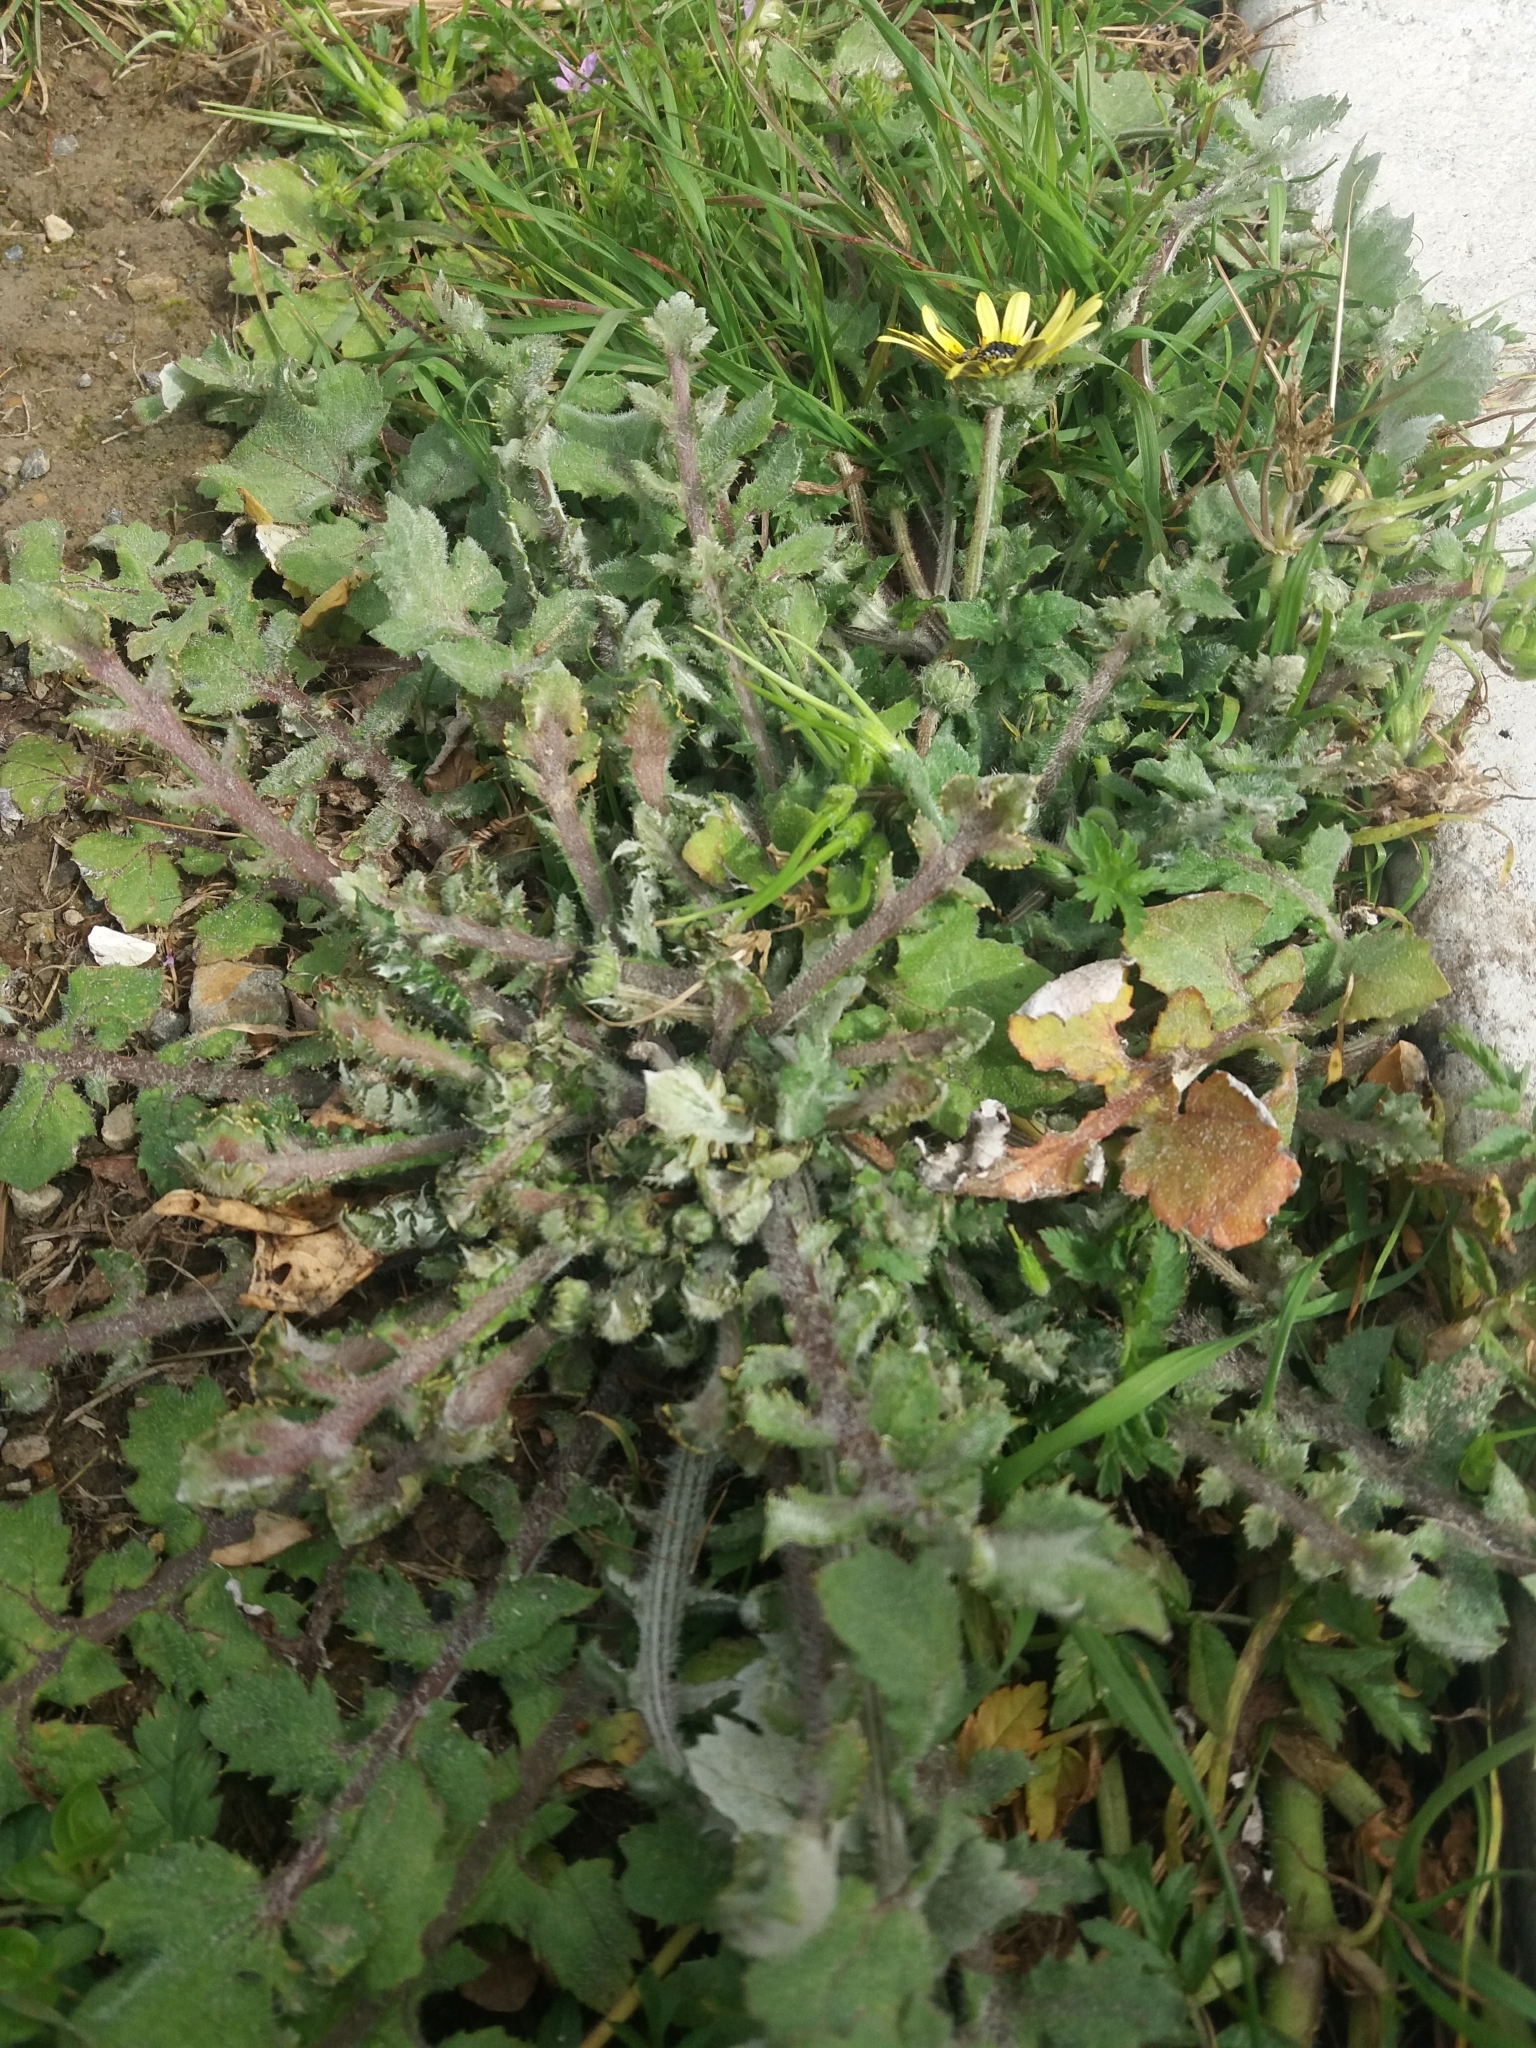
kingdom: Plantae
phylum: Tracheophyta
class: Magnoliopsida
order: Asterales
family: Asteraceae
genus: Arctotheca
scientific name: Arctotheca calendula
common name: Capeweed
